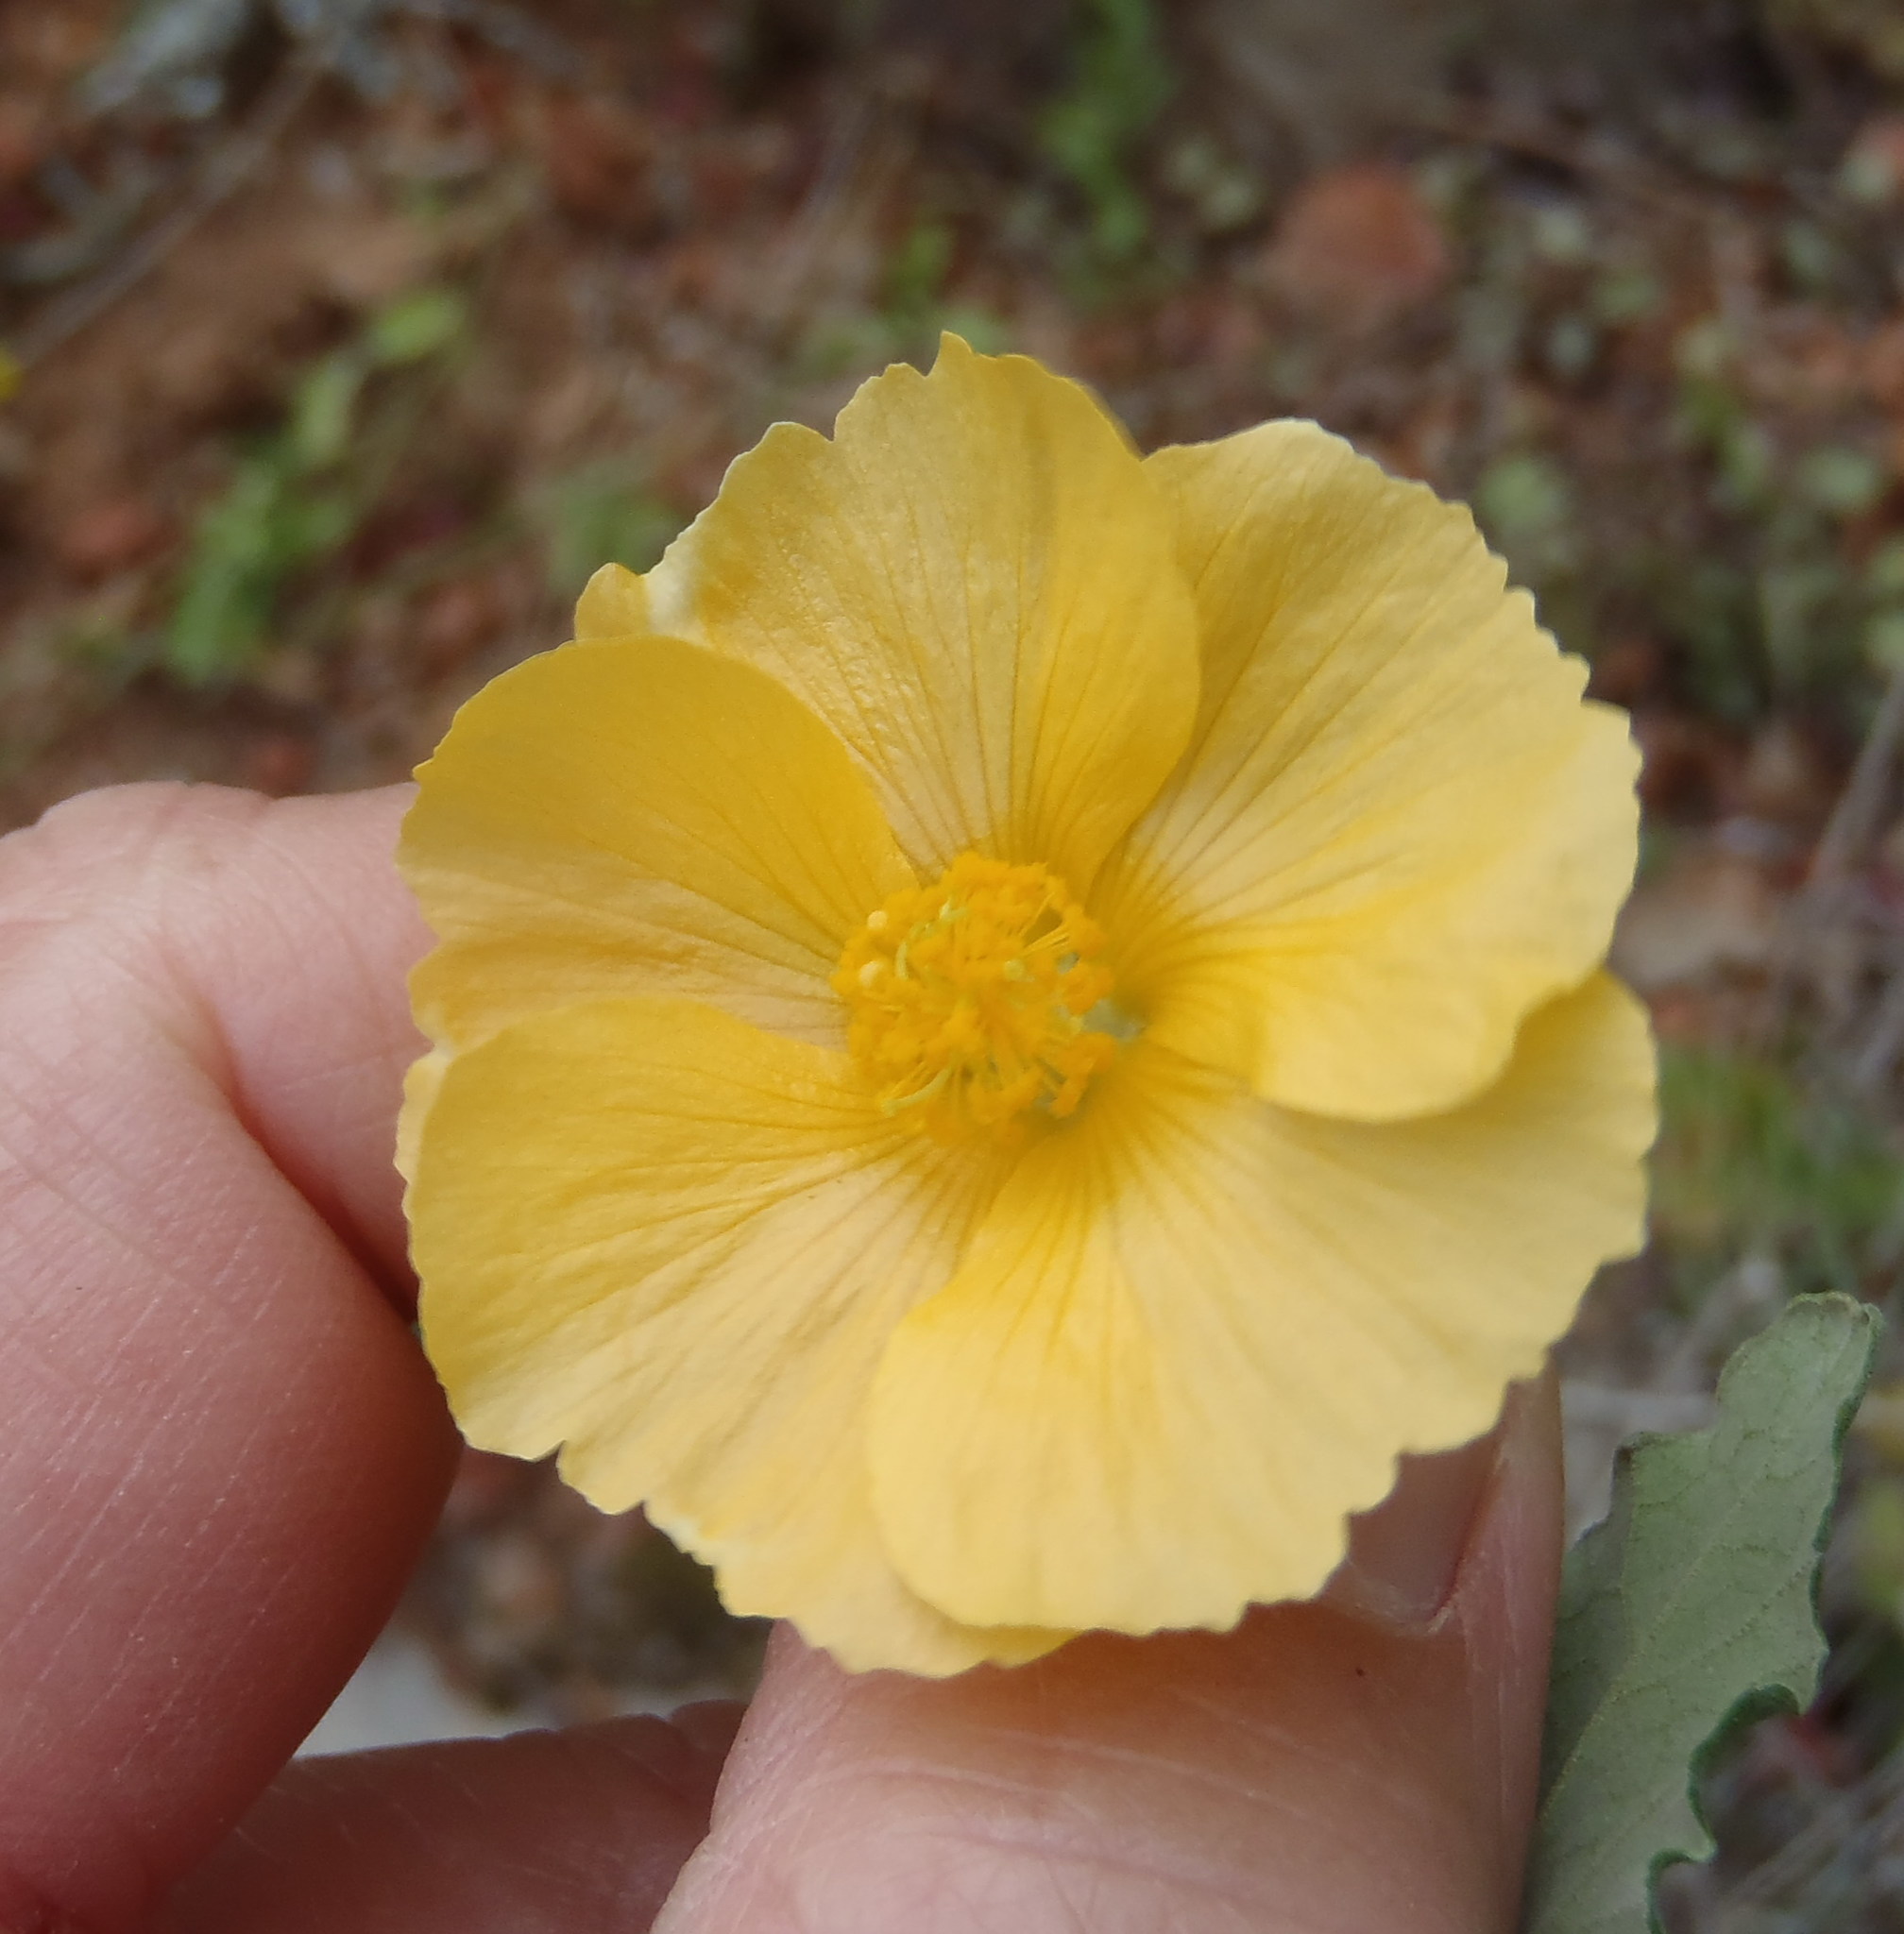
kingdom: Plantae
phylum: Tracheophyta
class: Magnoliopsida
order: Malvales
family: Malvaceae
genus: Abutilon
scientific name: Abutilon sonneratianum
